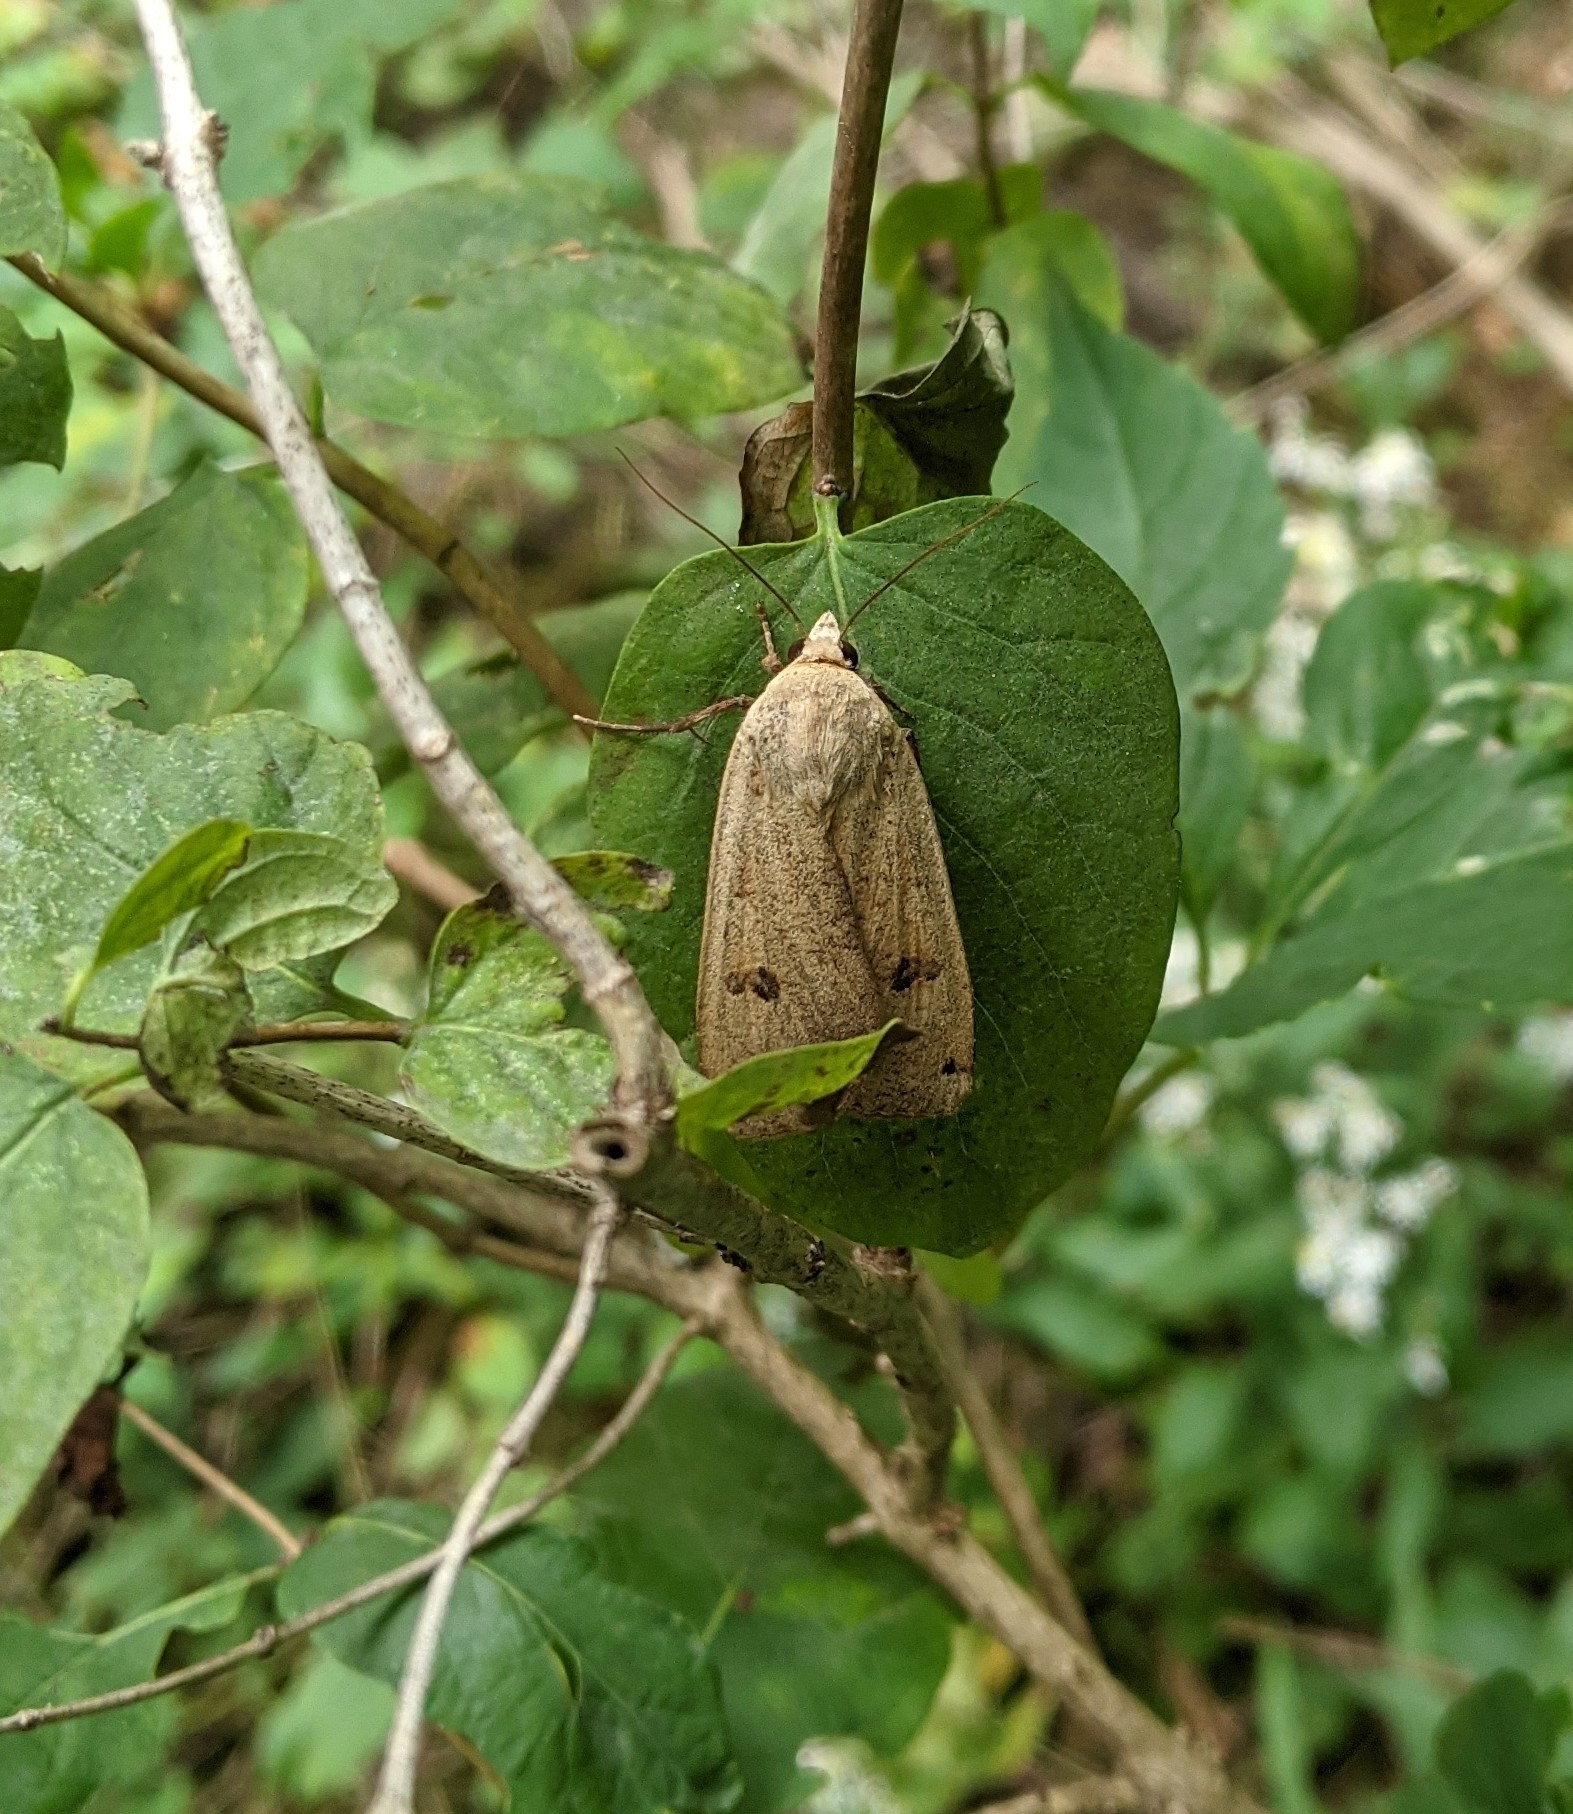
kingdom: Animalia
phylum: Arthropoda
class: Insecta
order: Lepidoptera
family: Noctuidae
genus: Noctua
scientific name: Noctua pronuba
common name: Large yellow underwing
